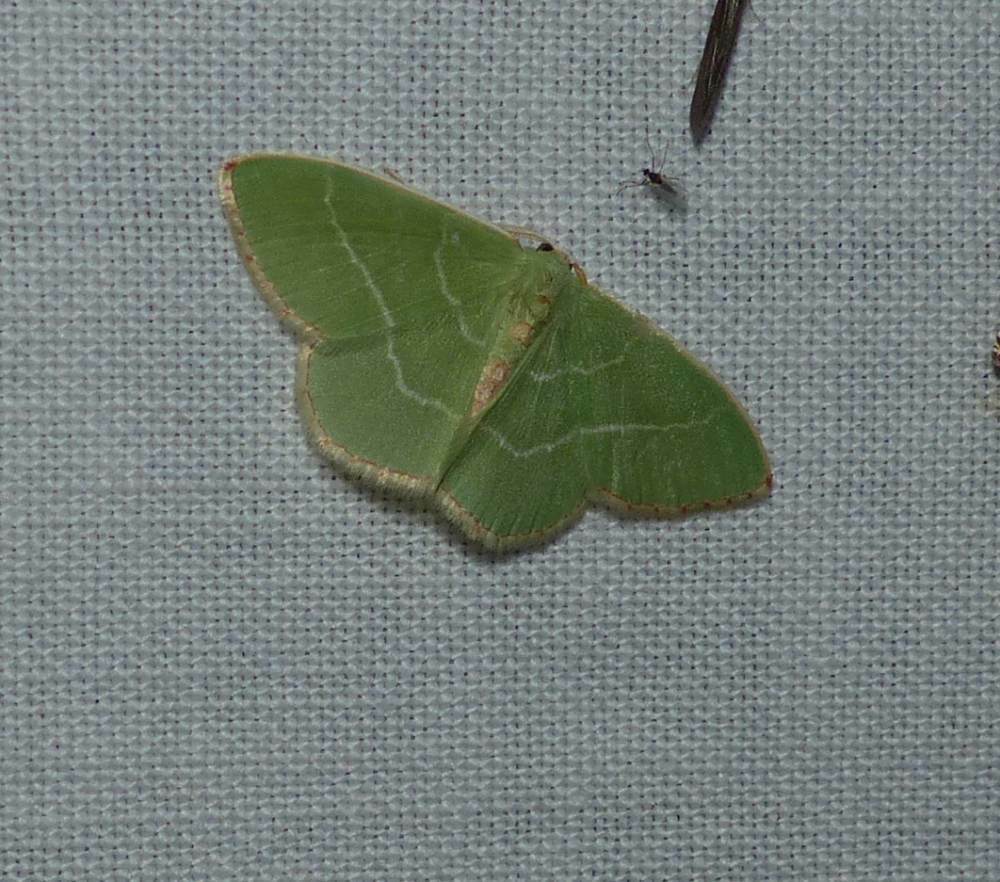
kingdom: Animalia
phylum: Arthropoda
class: Insecta
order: Lepidoptera
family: Geometridae
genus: Nemoria
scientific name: Nemoria bistriaria
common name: Red-fringed emerald
